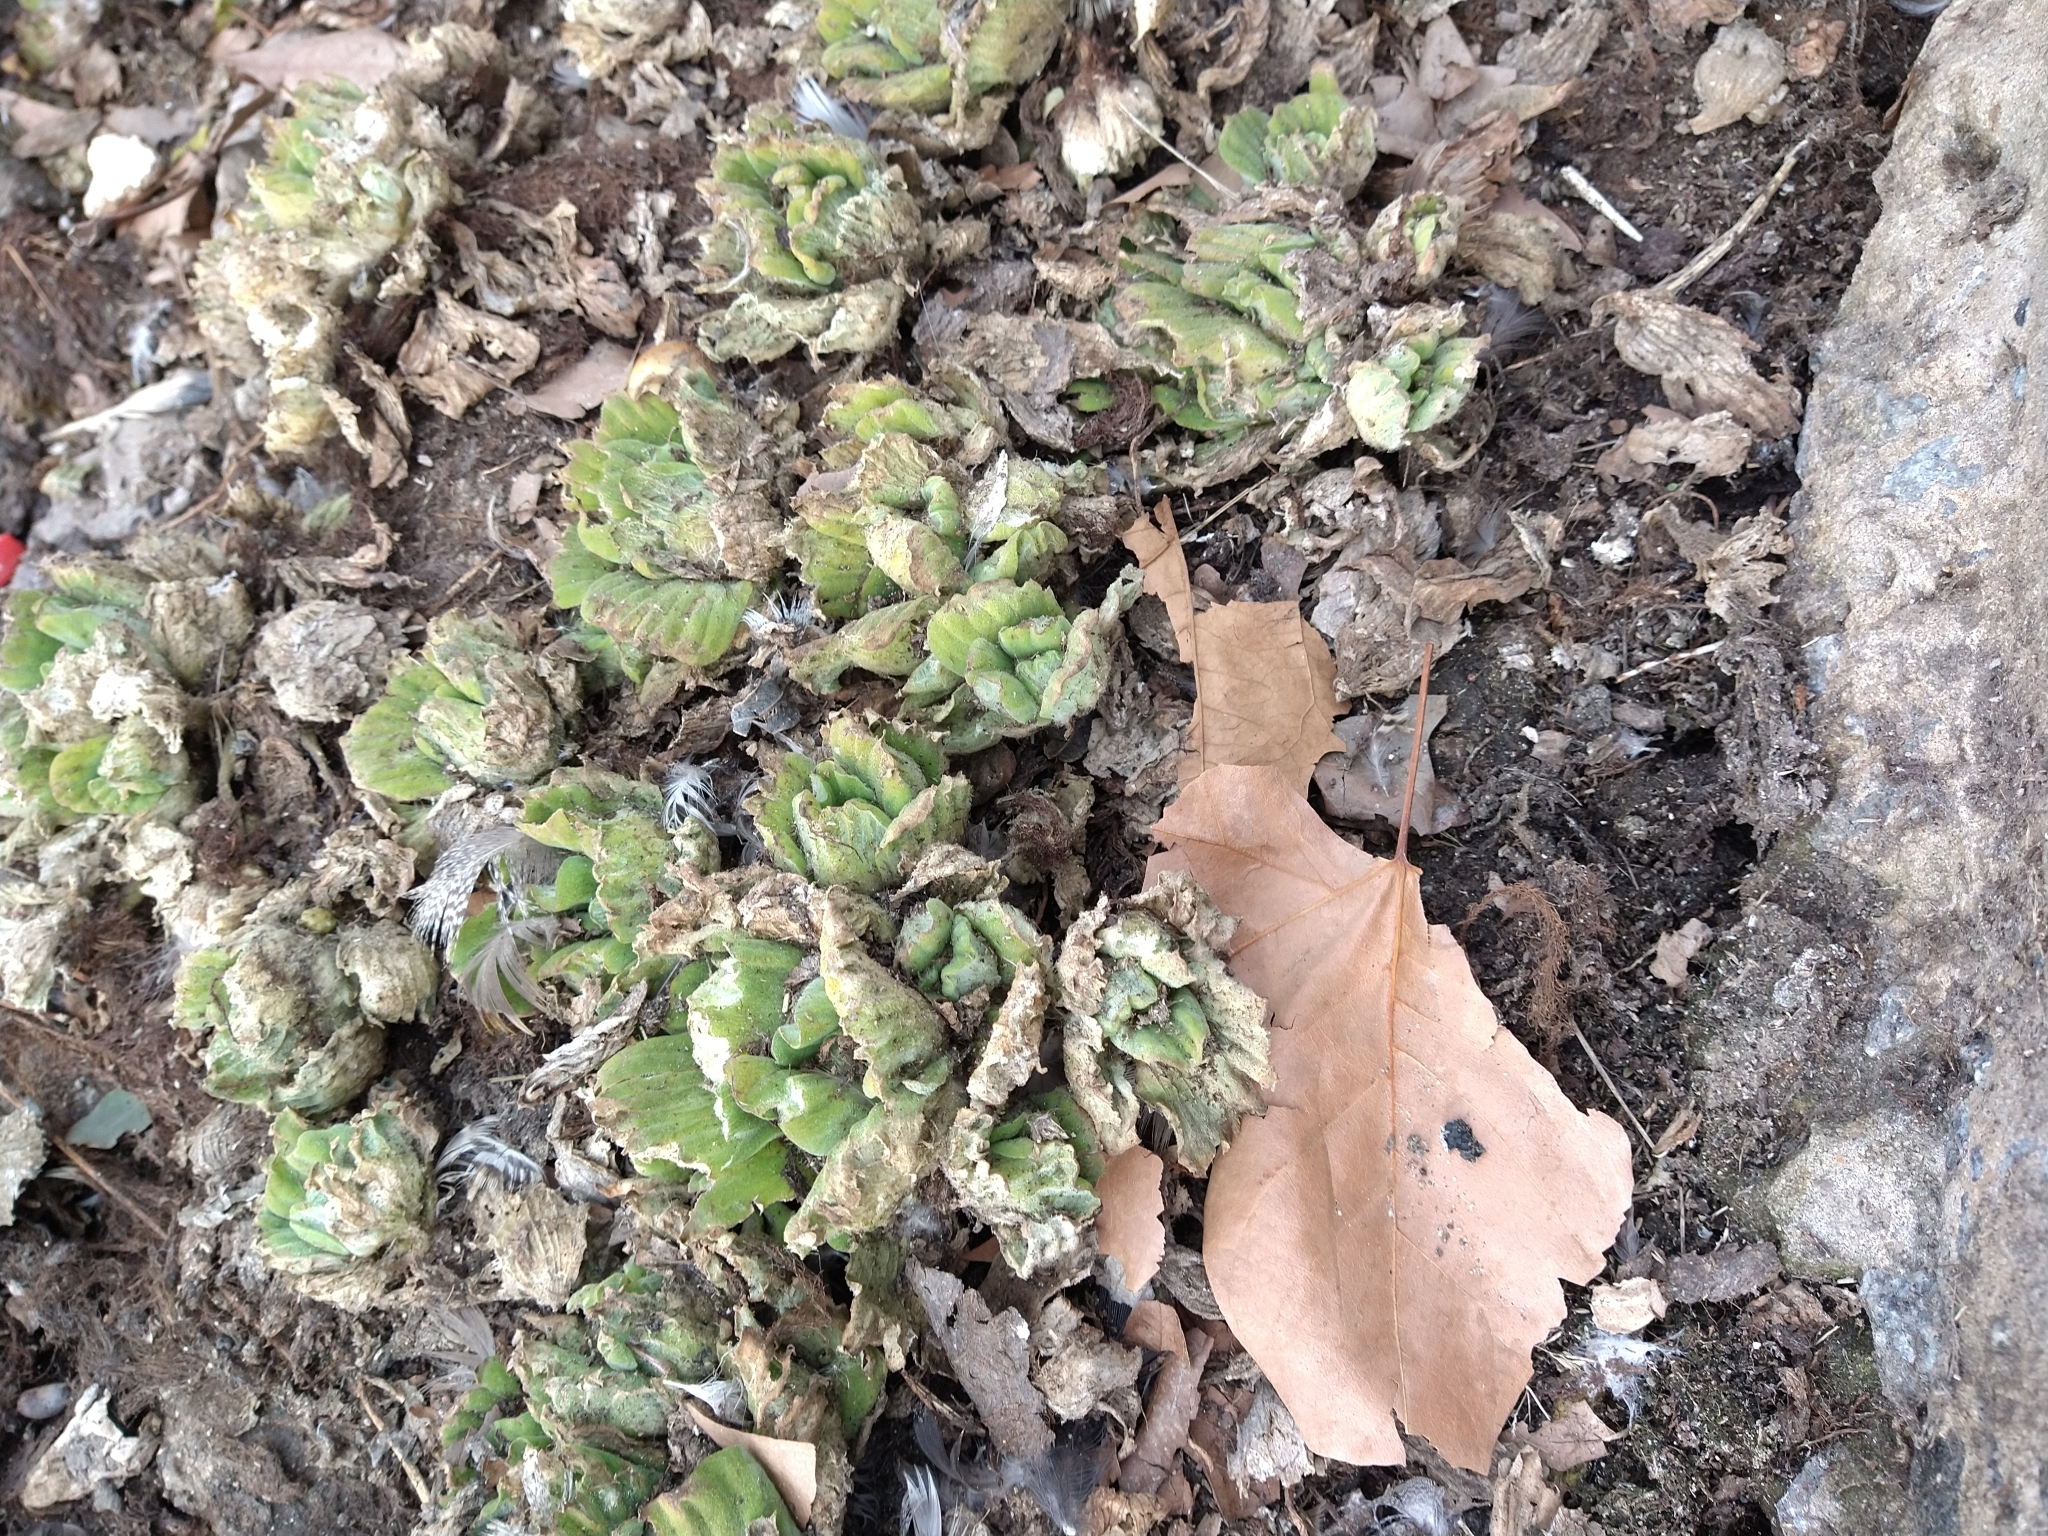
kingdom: Plantae
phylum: Tracheophyta
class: Liliopsida
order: Alismatales
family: Araceae
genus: Pistia
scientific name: Pistia stratiotes
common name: Water lettuce
